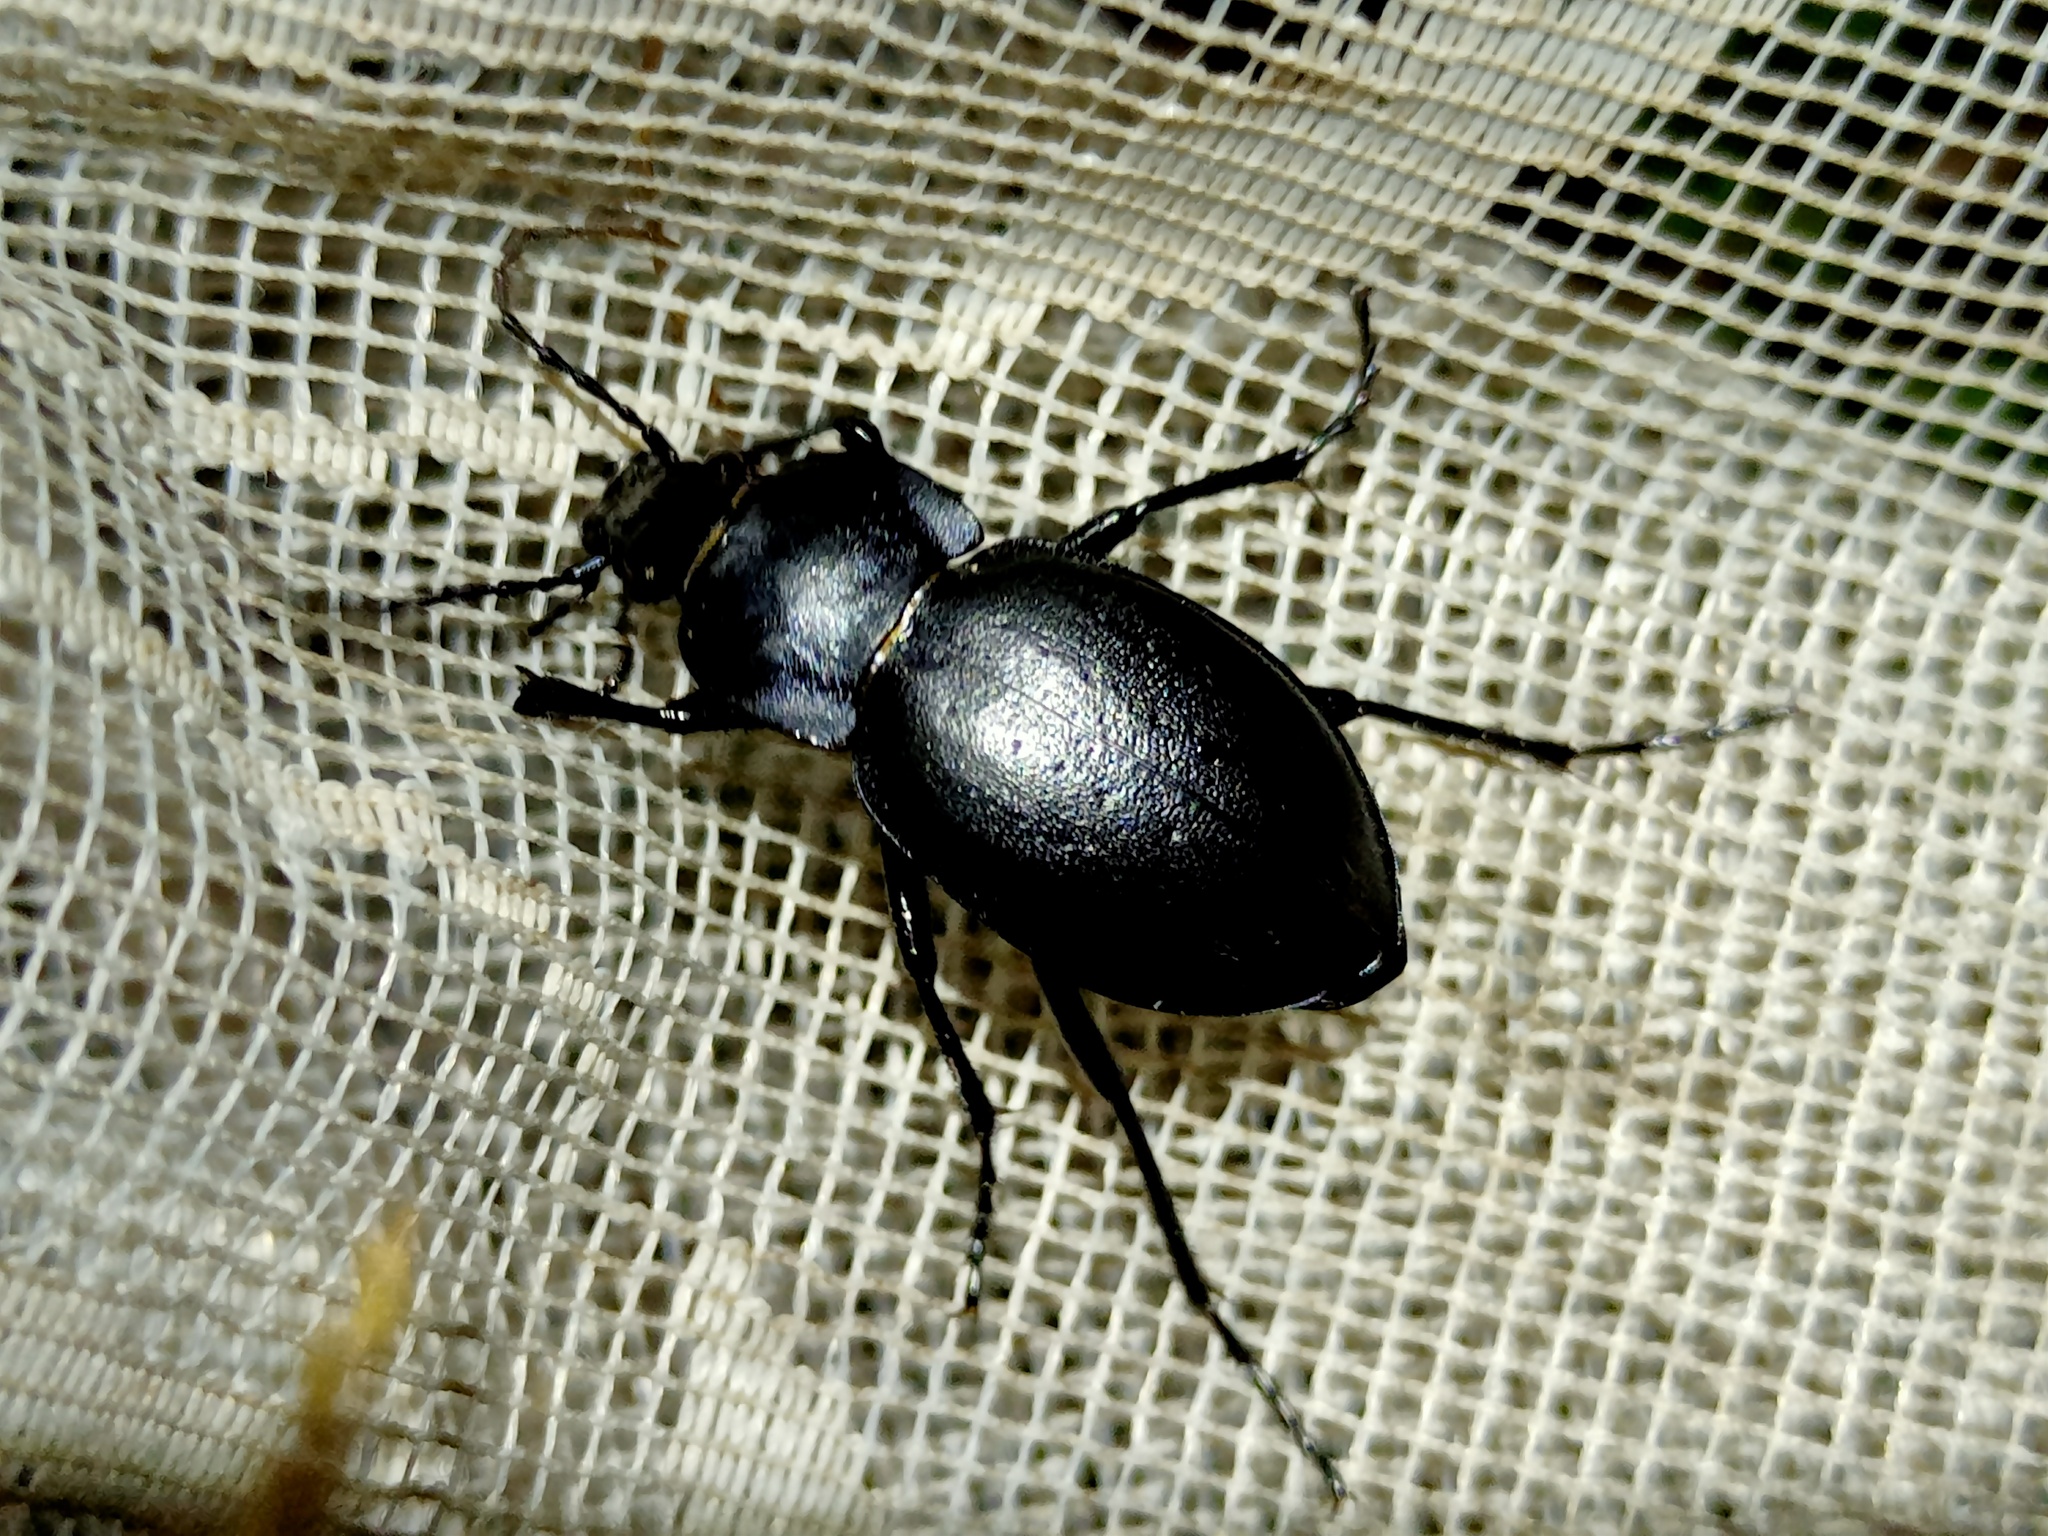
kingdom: Animalia
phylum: Arthropoda
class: Insecta
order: Coleoptera
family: Carabidae
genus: Carabus
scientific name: Carabus montivagus
